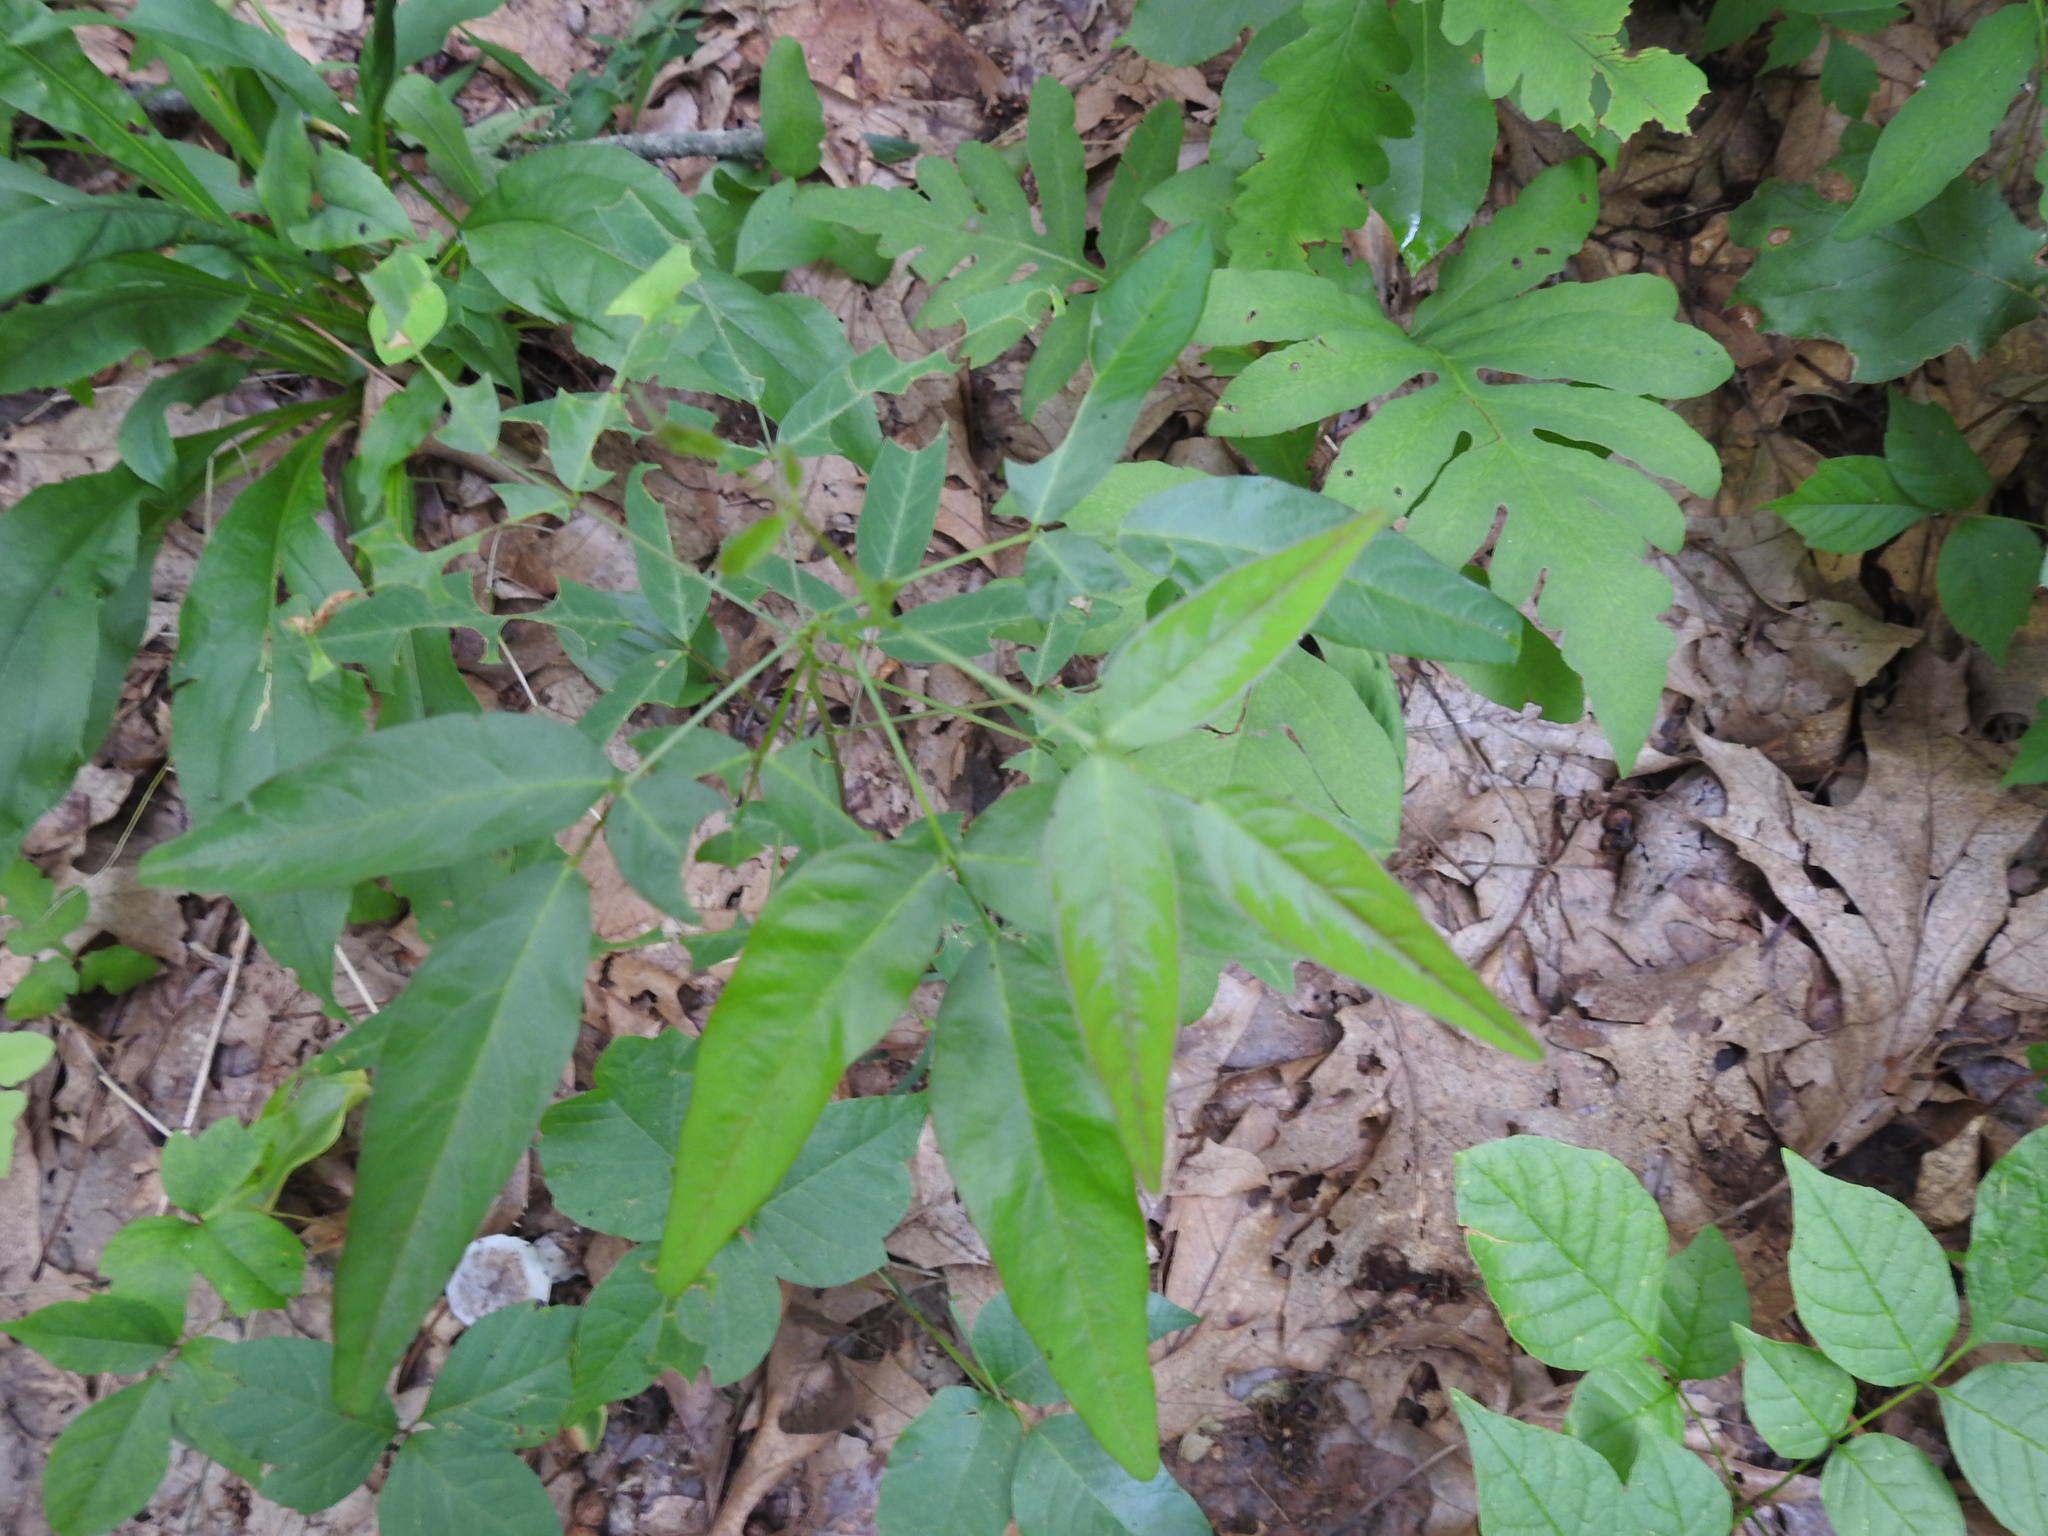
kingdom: Plantae
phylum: Tracheophyta
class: Magnoliopsida
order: Fabales
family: Fabaceae
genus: Desmodium
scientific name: Desmodium paniculatum
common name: Panicled tick-clover
